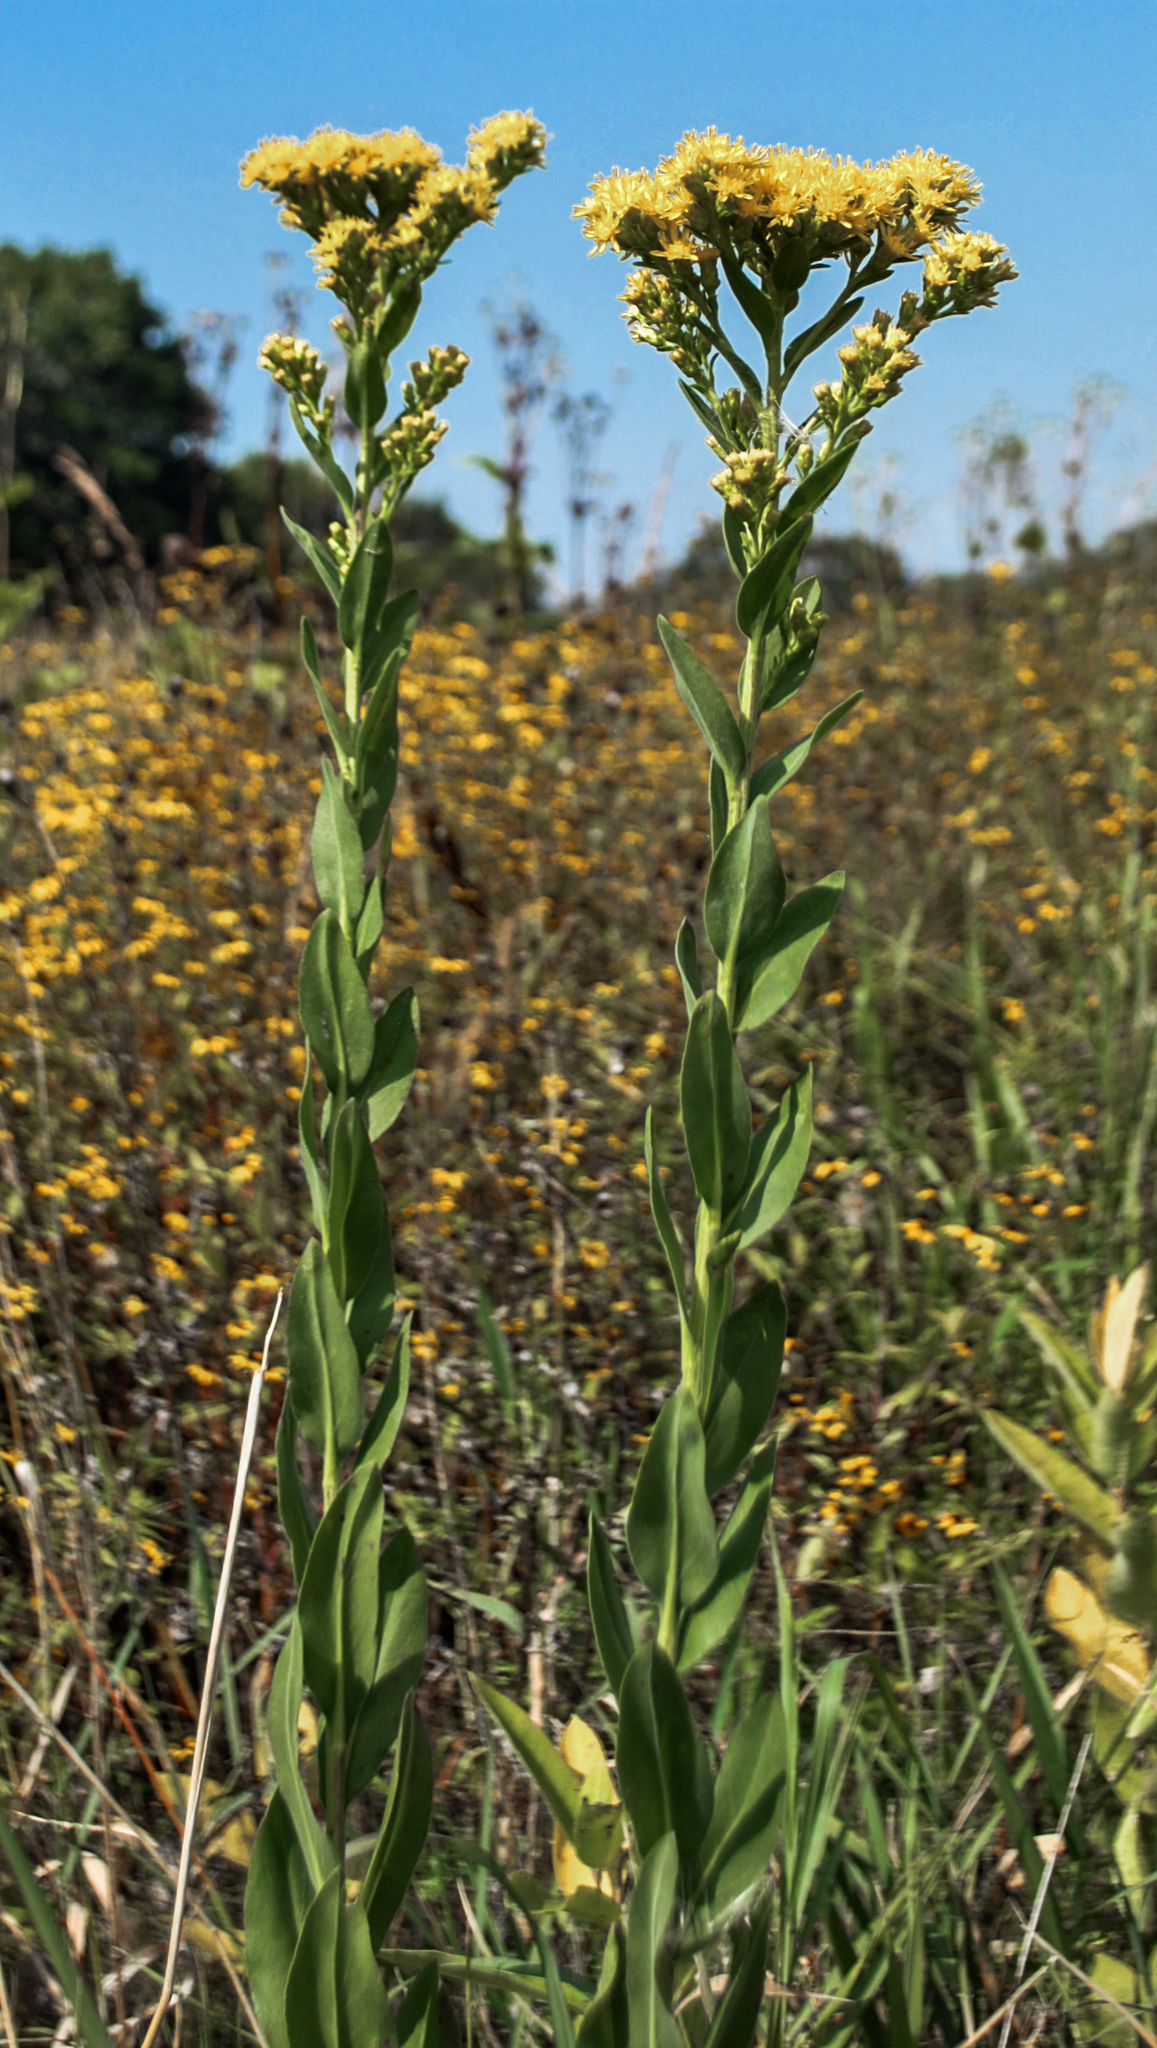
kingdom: Plantae
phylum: Tracheophyta
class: Magnoliopsida
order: Asterales
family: Asteraceae
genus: Solidago
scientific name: Solidago rigida
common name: Rigid goldenrod
